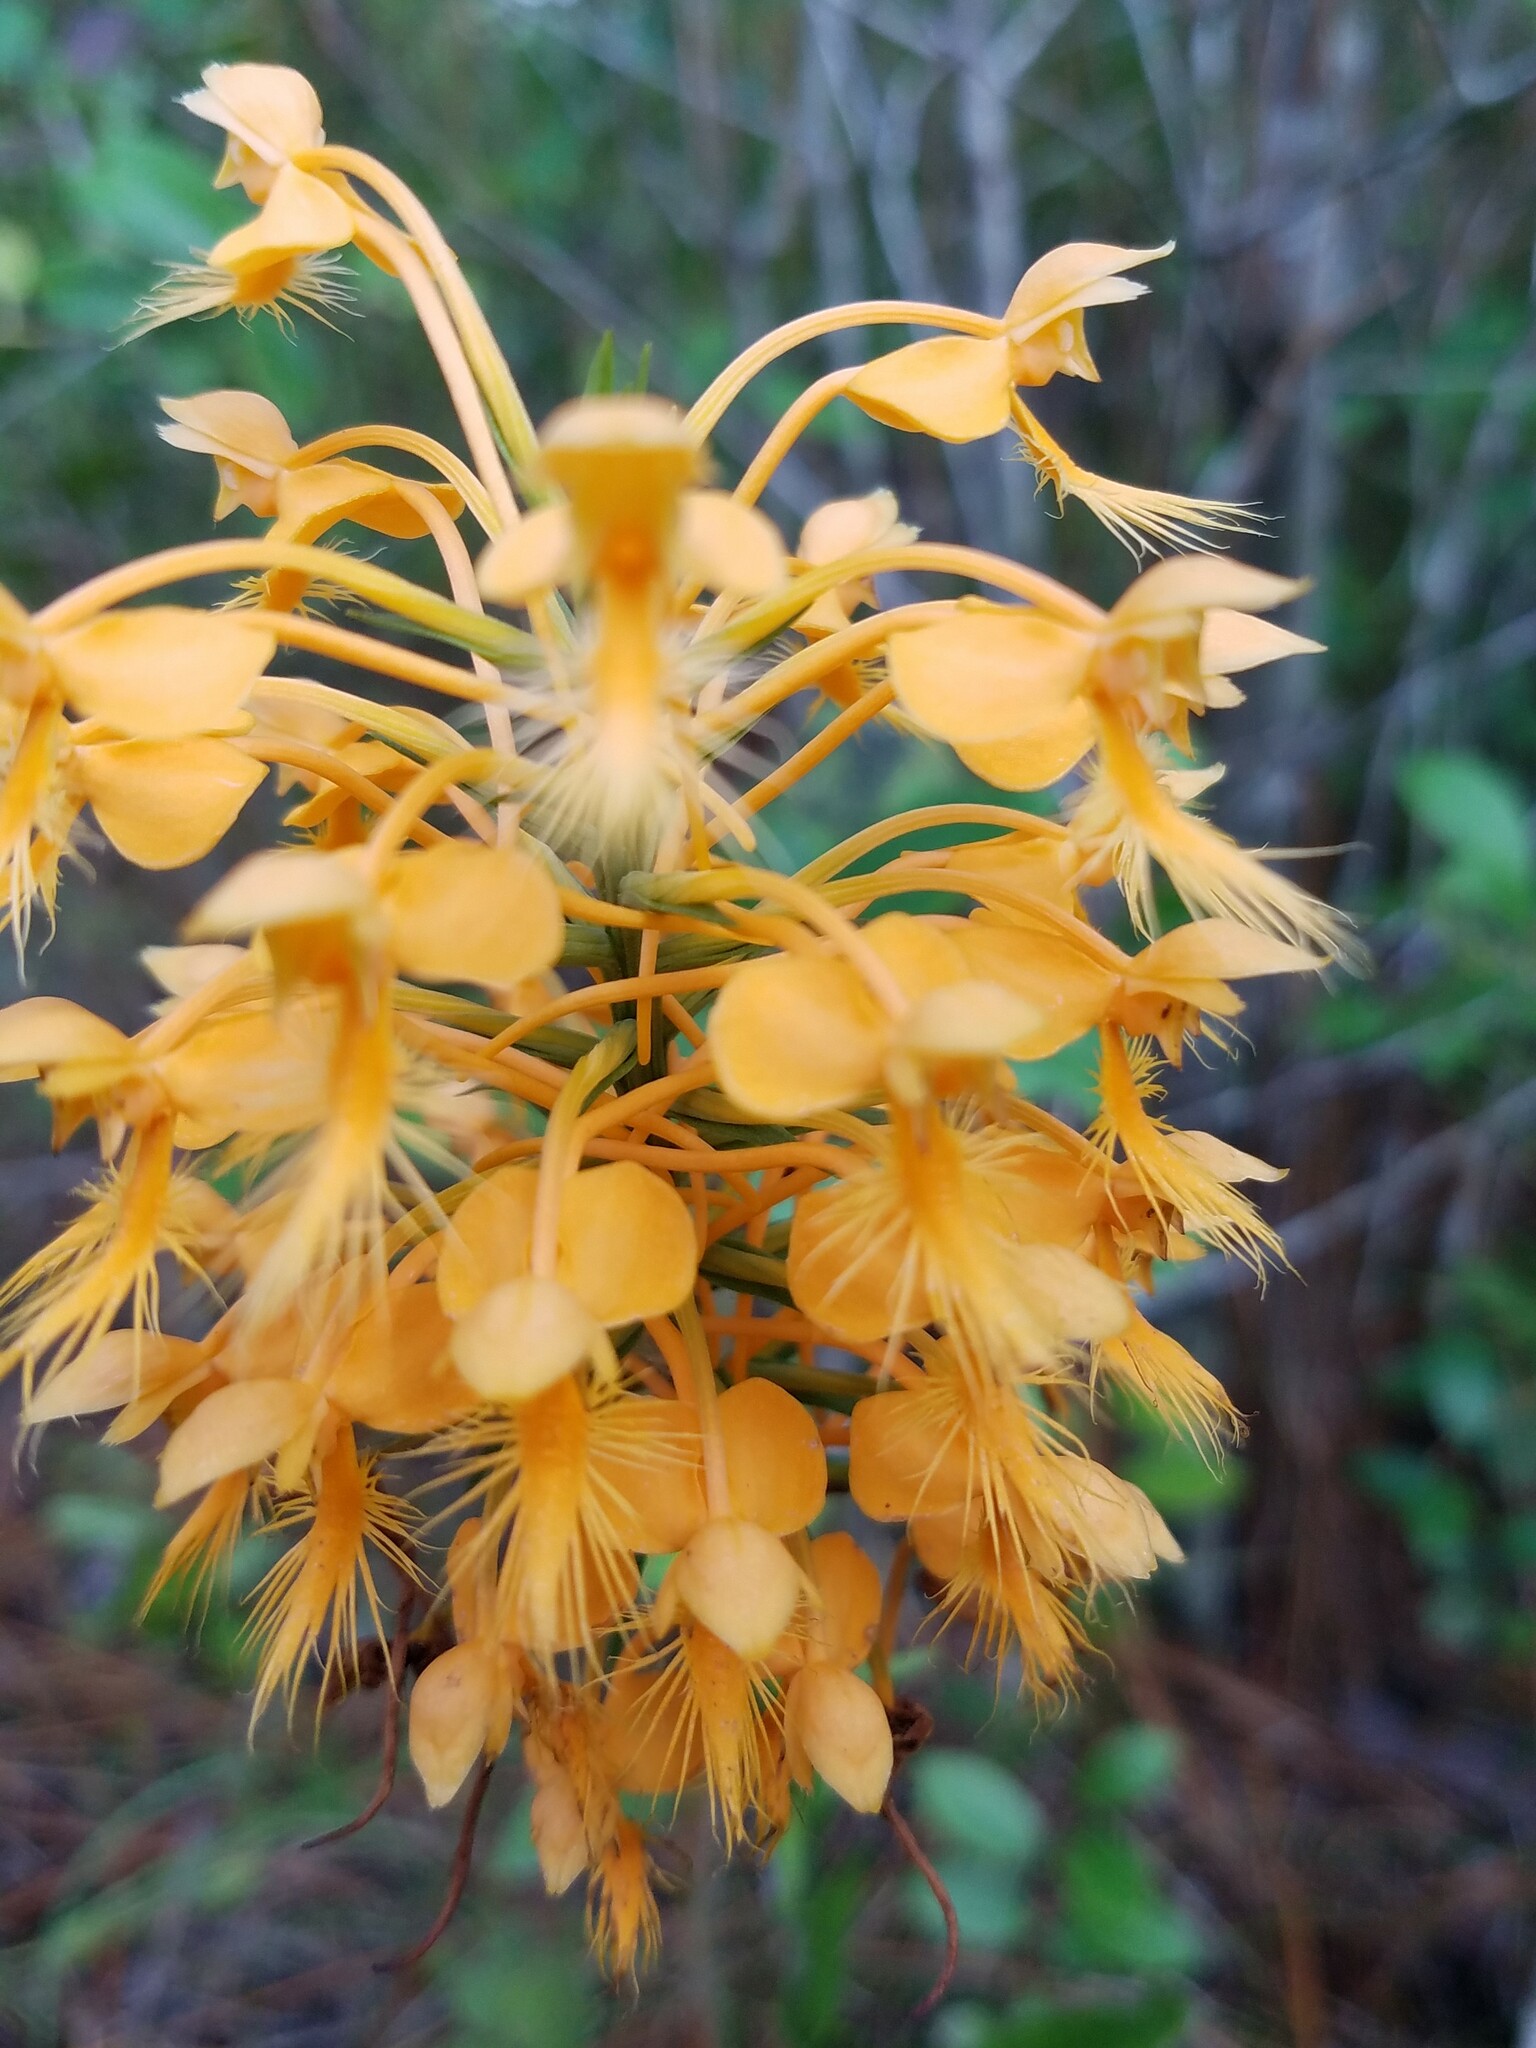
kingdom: Plantae
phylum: Tracheophyta
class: Liliopsida
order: Asparagales
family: Orchidaceae
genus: Platanthera
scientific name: Platanthera ciliaris
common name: Yellow fringed orchid
